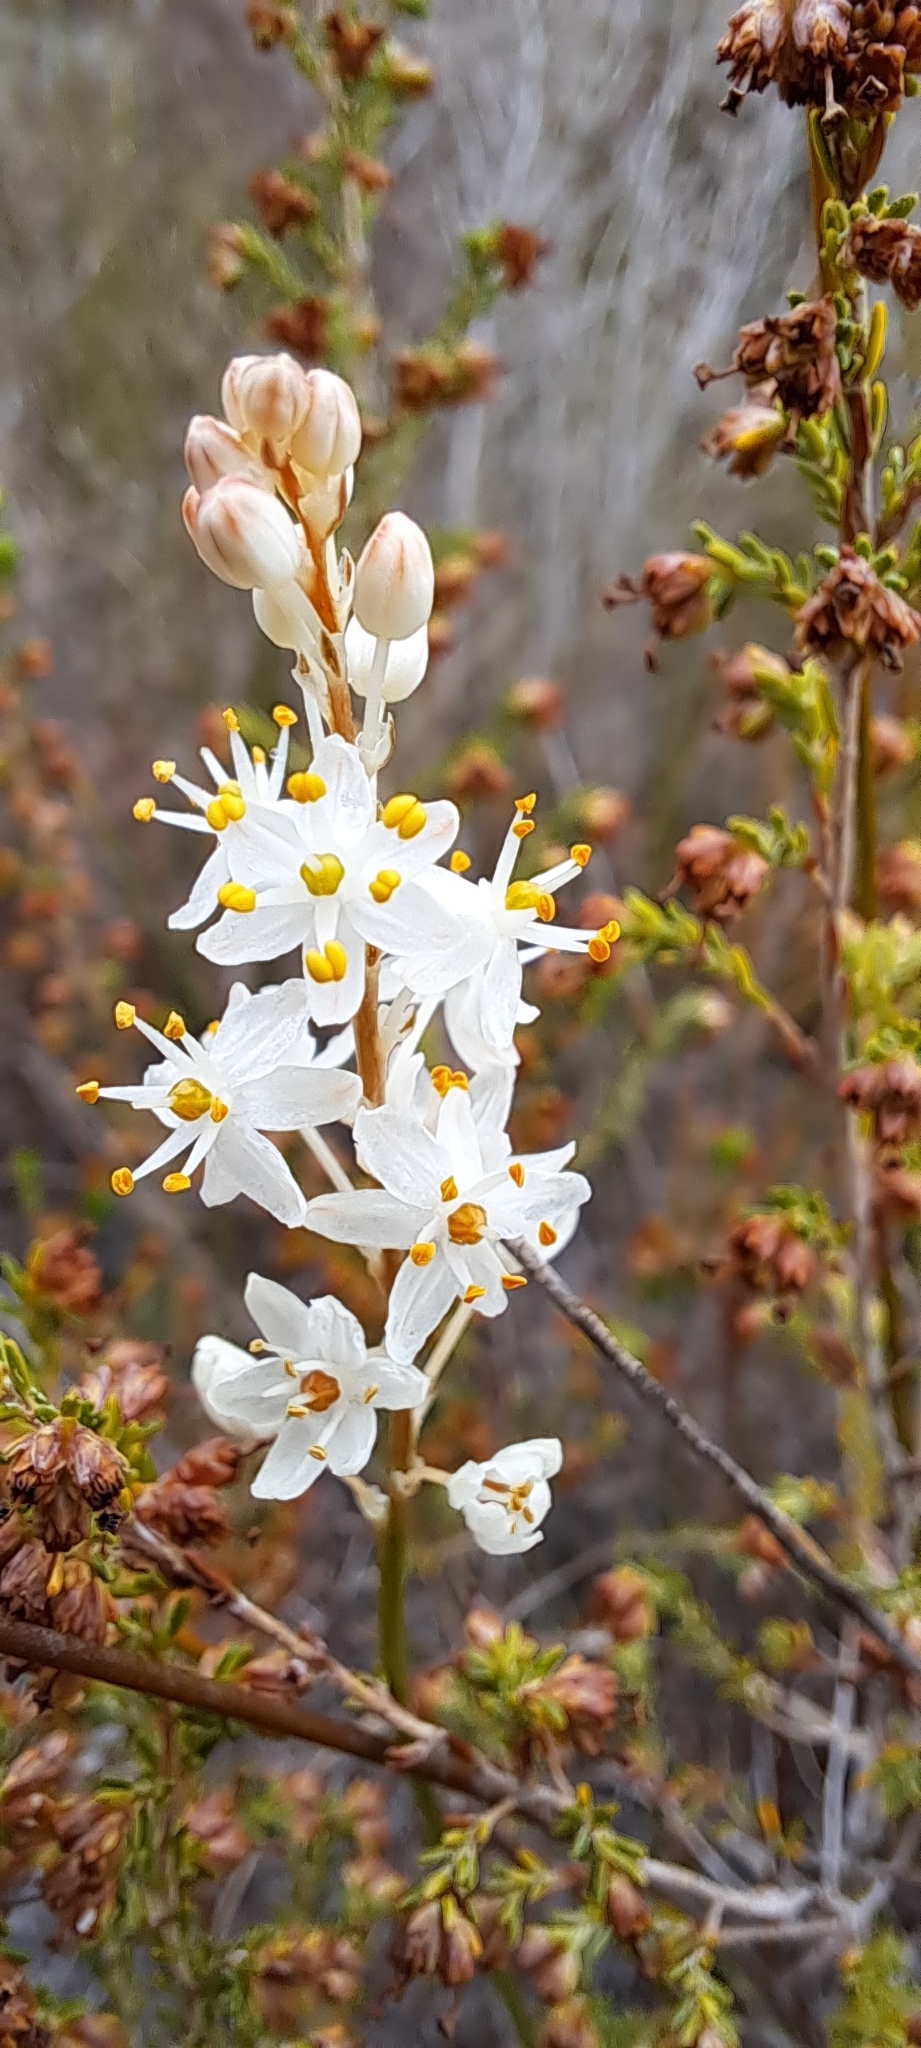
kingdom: Plantae
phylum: Tracheophyta
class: Liliopsida
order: Asparagales
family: Asphodelaceae
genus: Bulbinella
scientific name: Bulbinella trinervis
